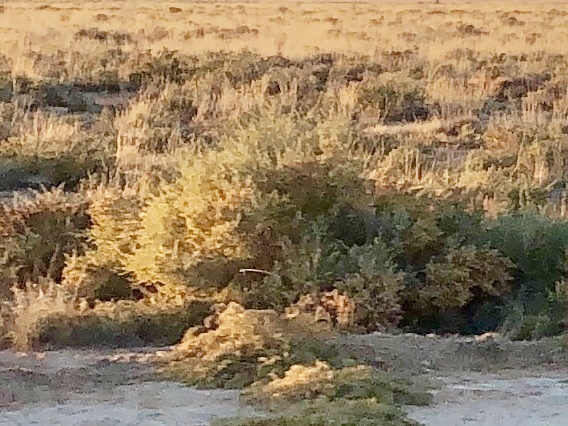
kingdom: Plantae
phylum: Tracheophyta
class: Magnoliopsida
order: Caryophyllales
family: Amaranthaceae
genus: Atriplex
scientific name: Atriplex canescens
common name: Four-wing saltbush
